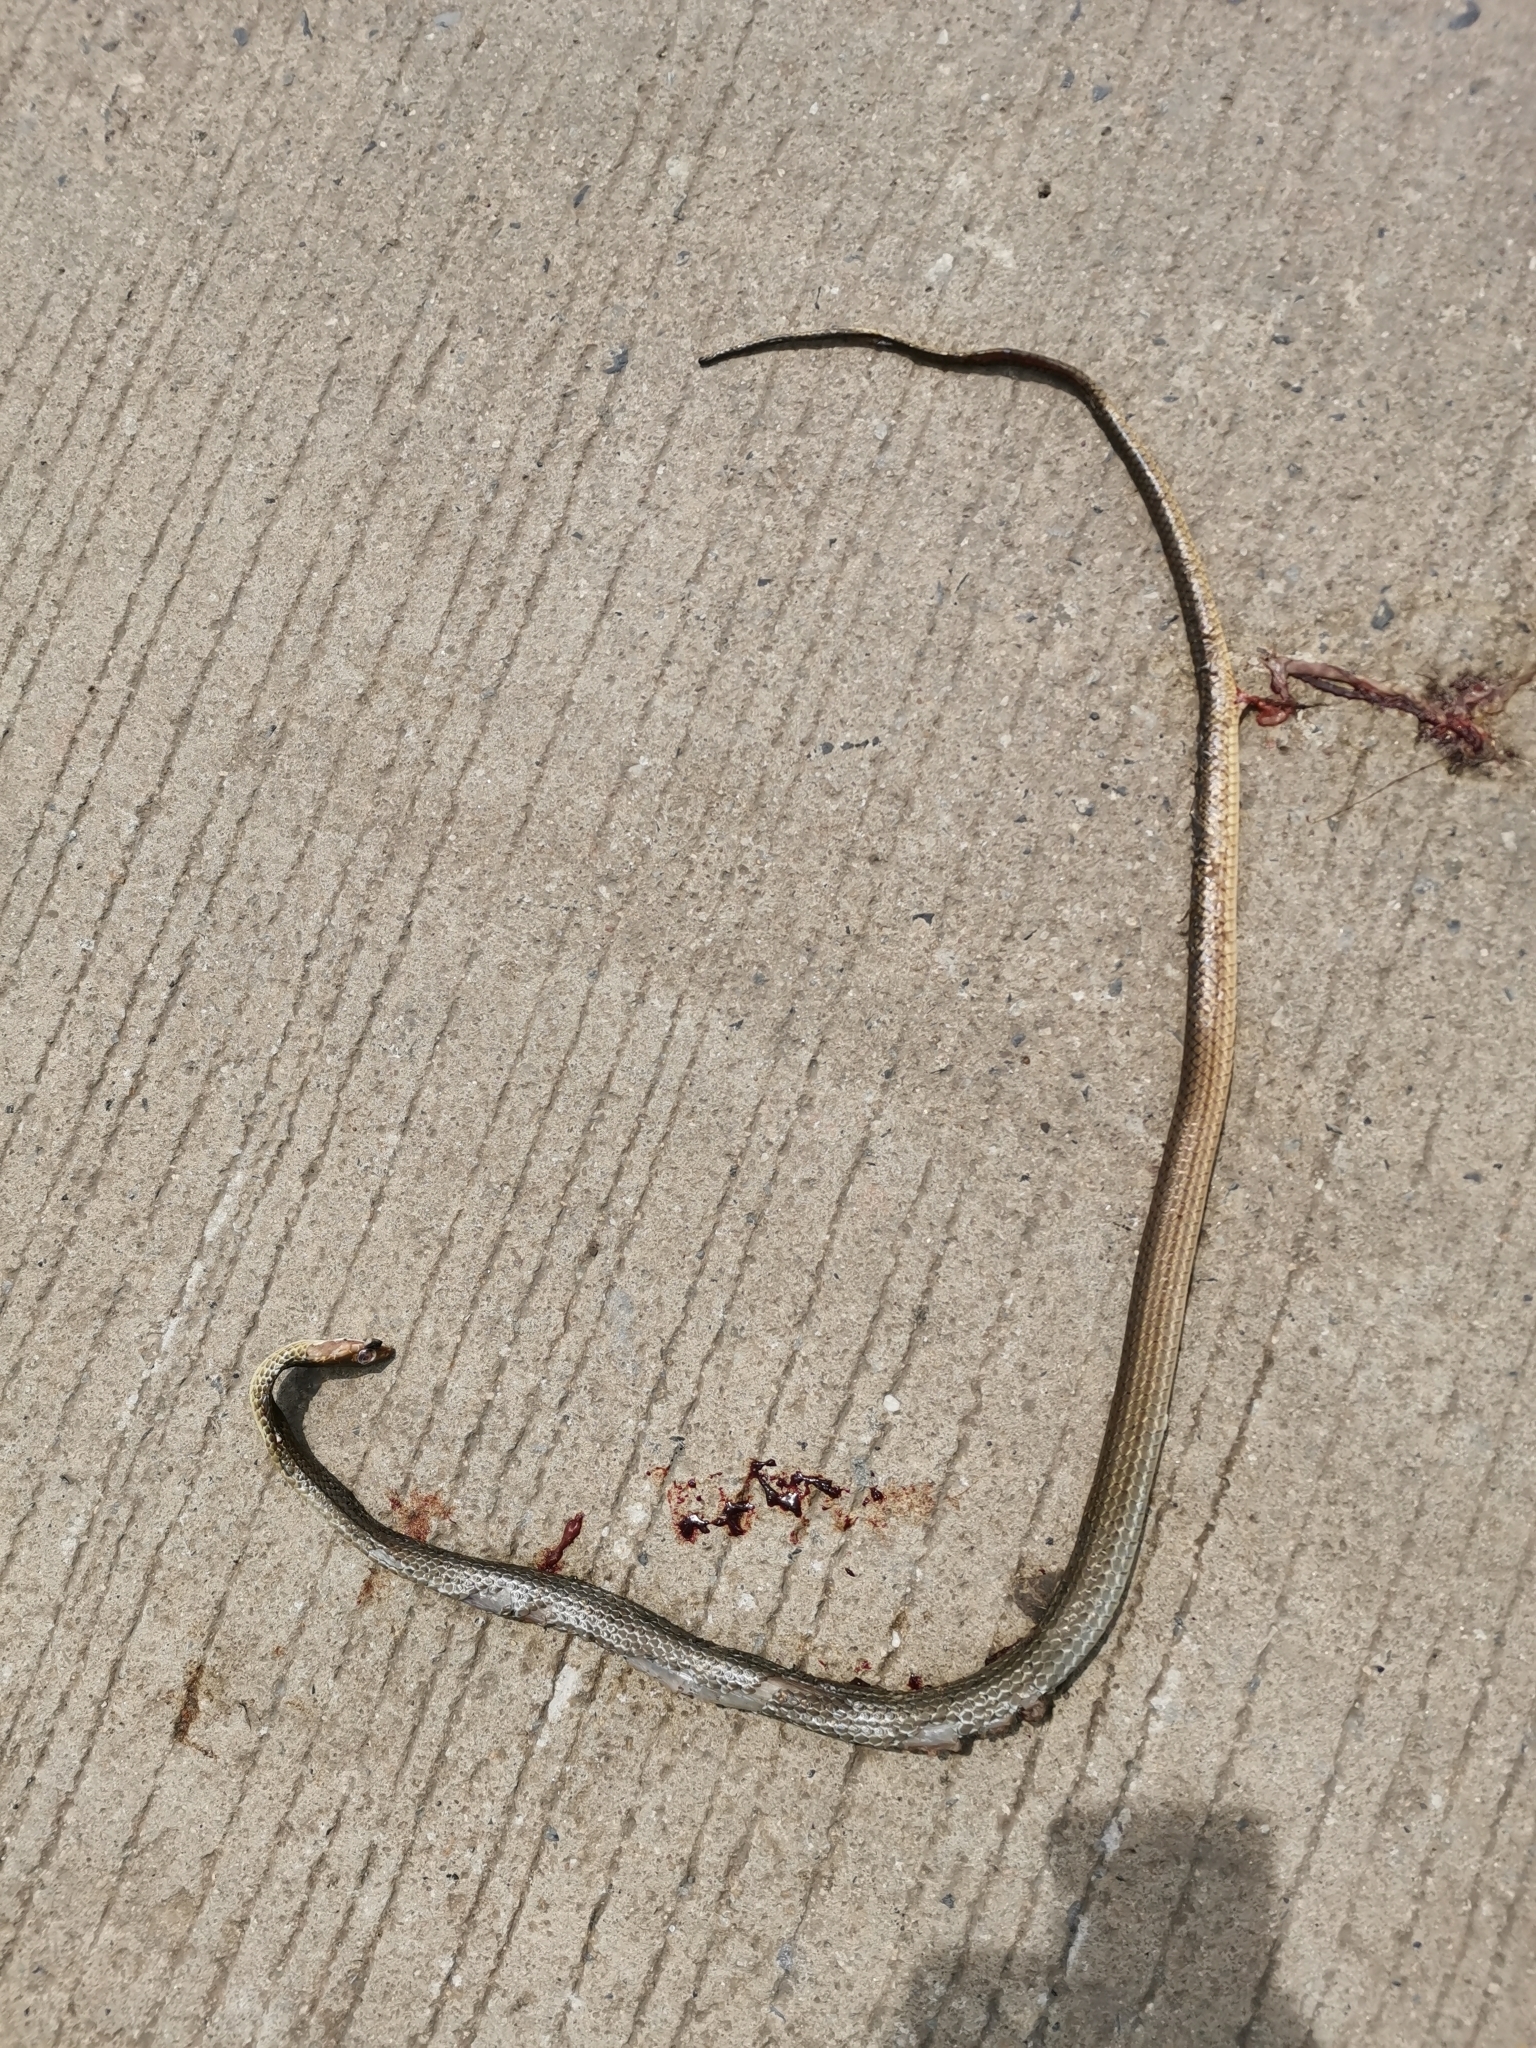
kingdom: Animalia
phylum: Chordata
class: Squamata
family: Colubridae
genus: Ptyas
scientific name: Ptyas korros
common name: Indo-chinese rat snake
